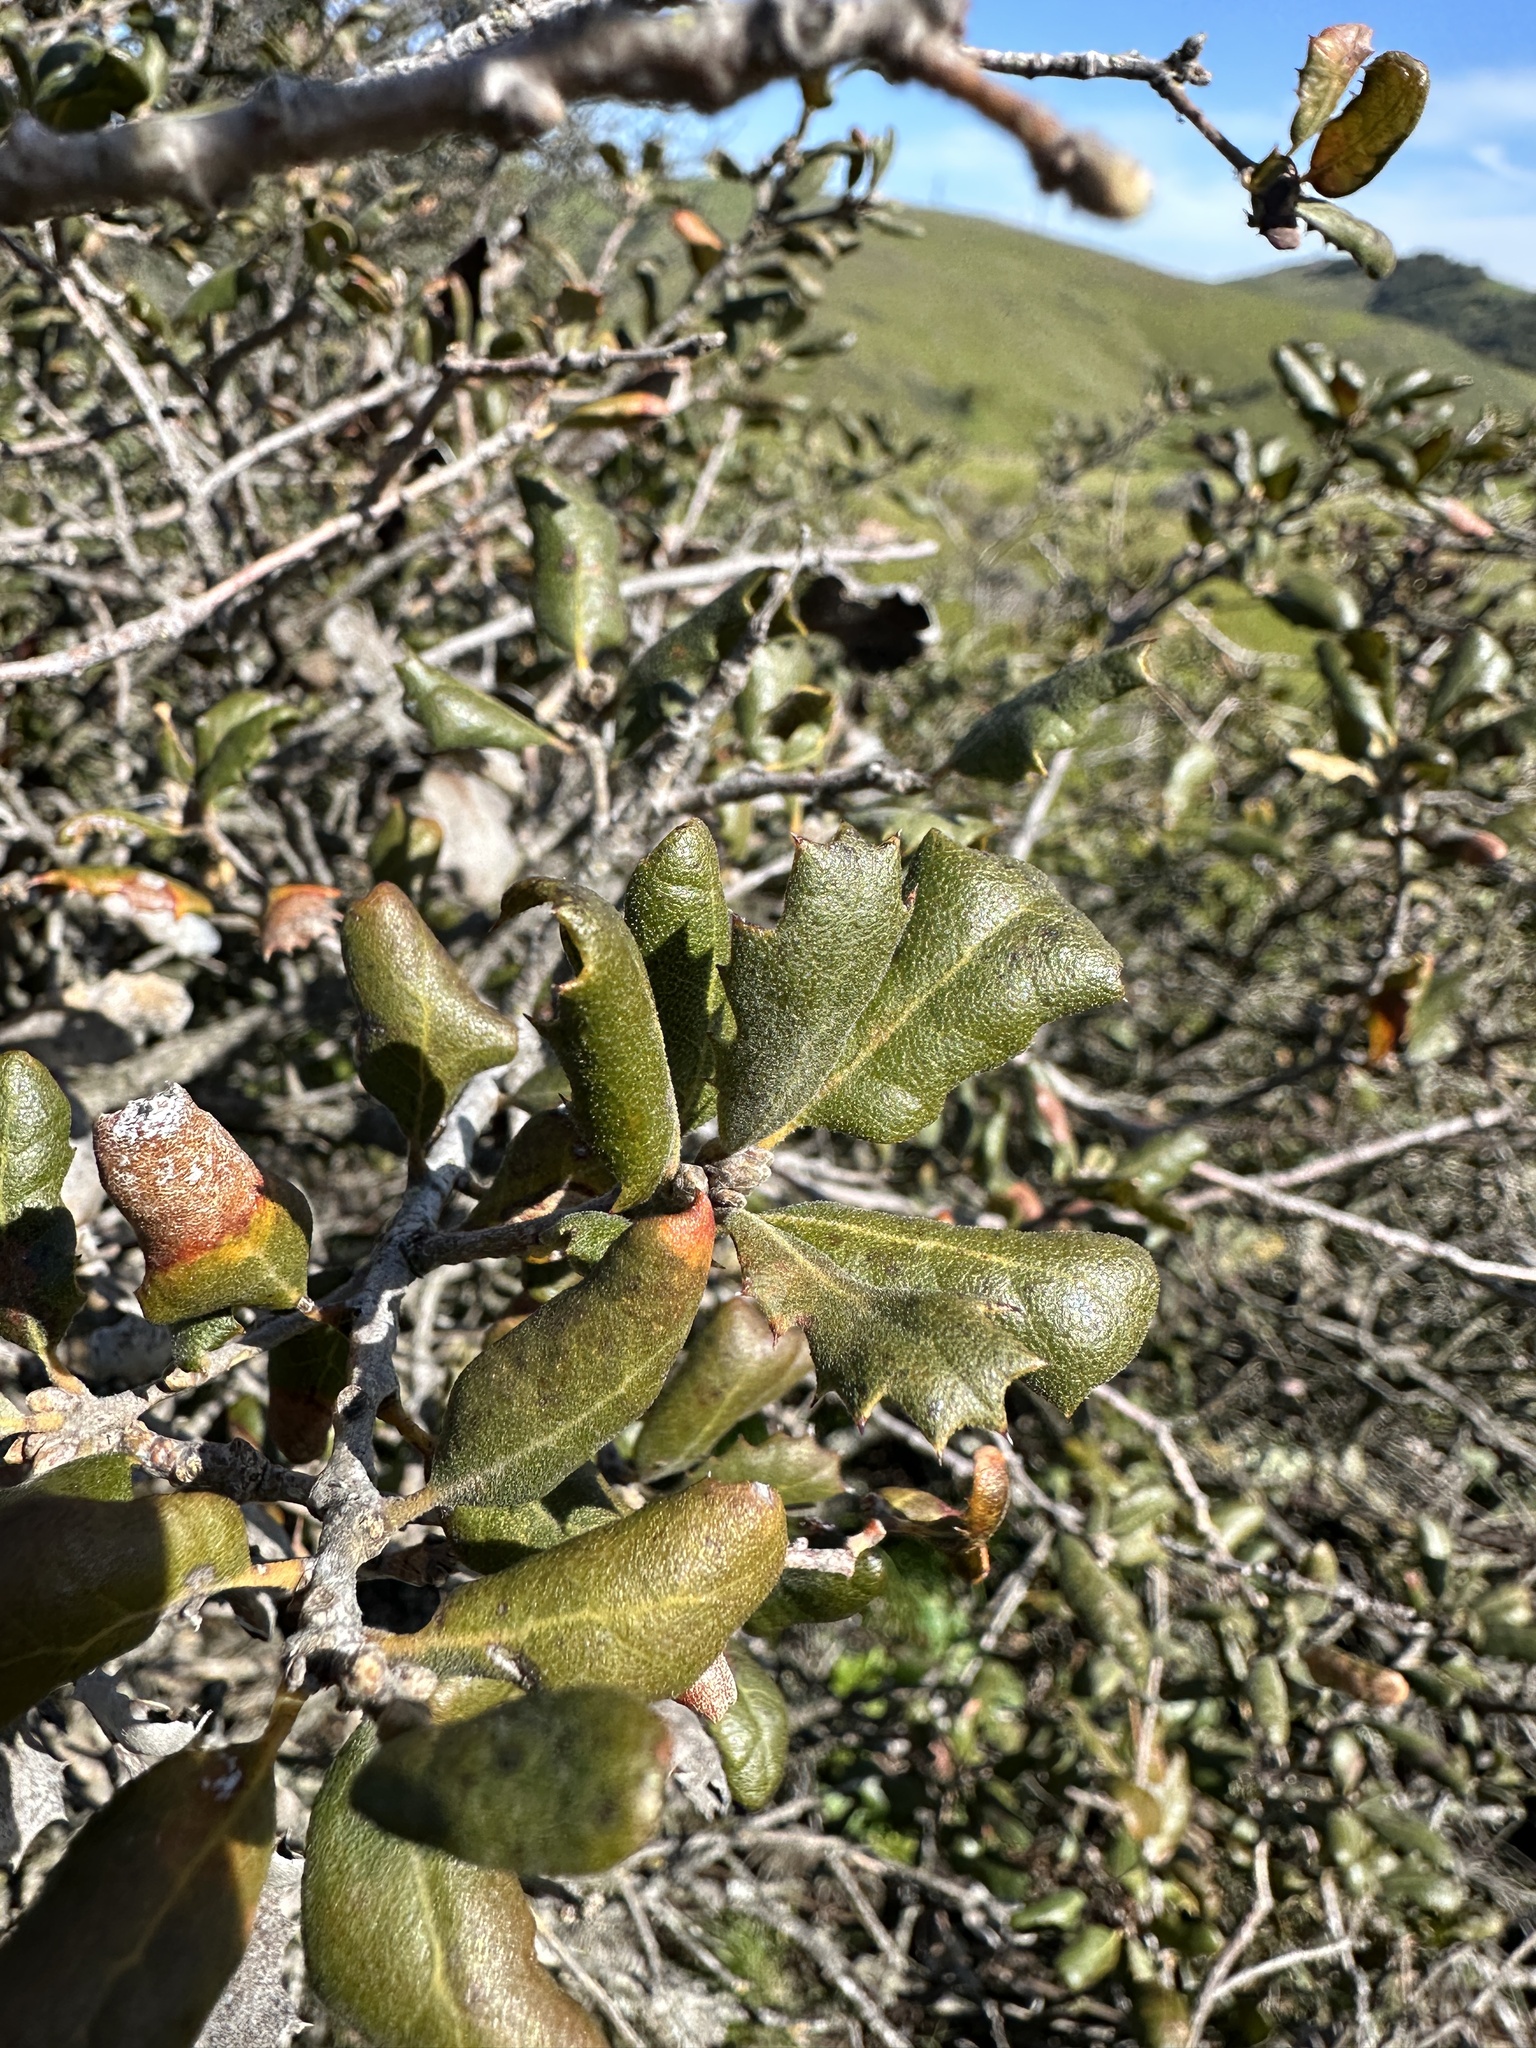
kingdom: Plantae
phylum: Tracheophyta
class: Magnoliopsida
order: Fagales
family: Fagaceae
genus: Quercus
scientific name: Quercus durata
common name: Leather oak
